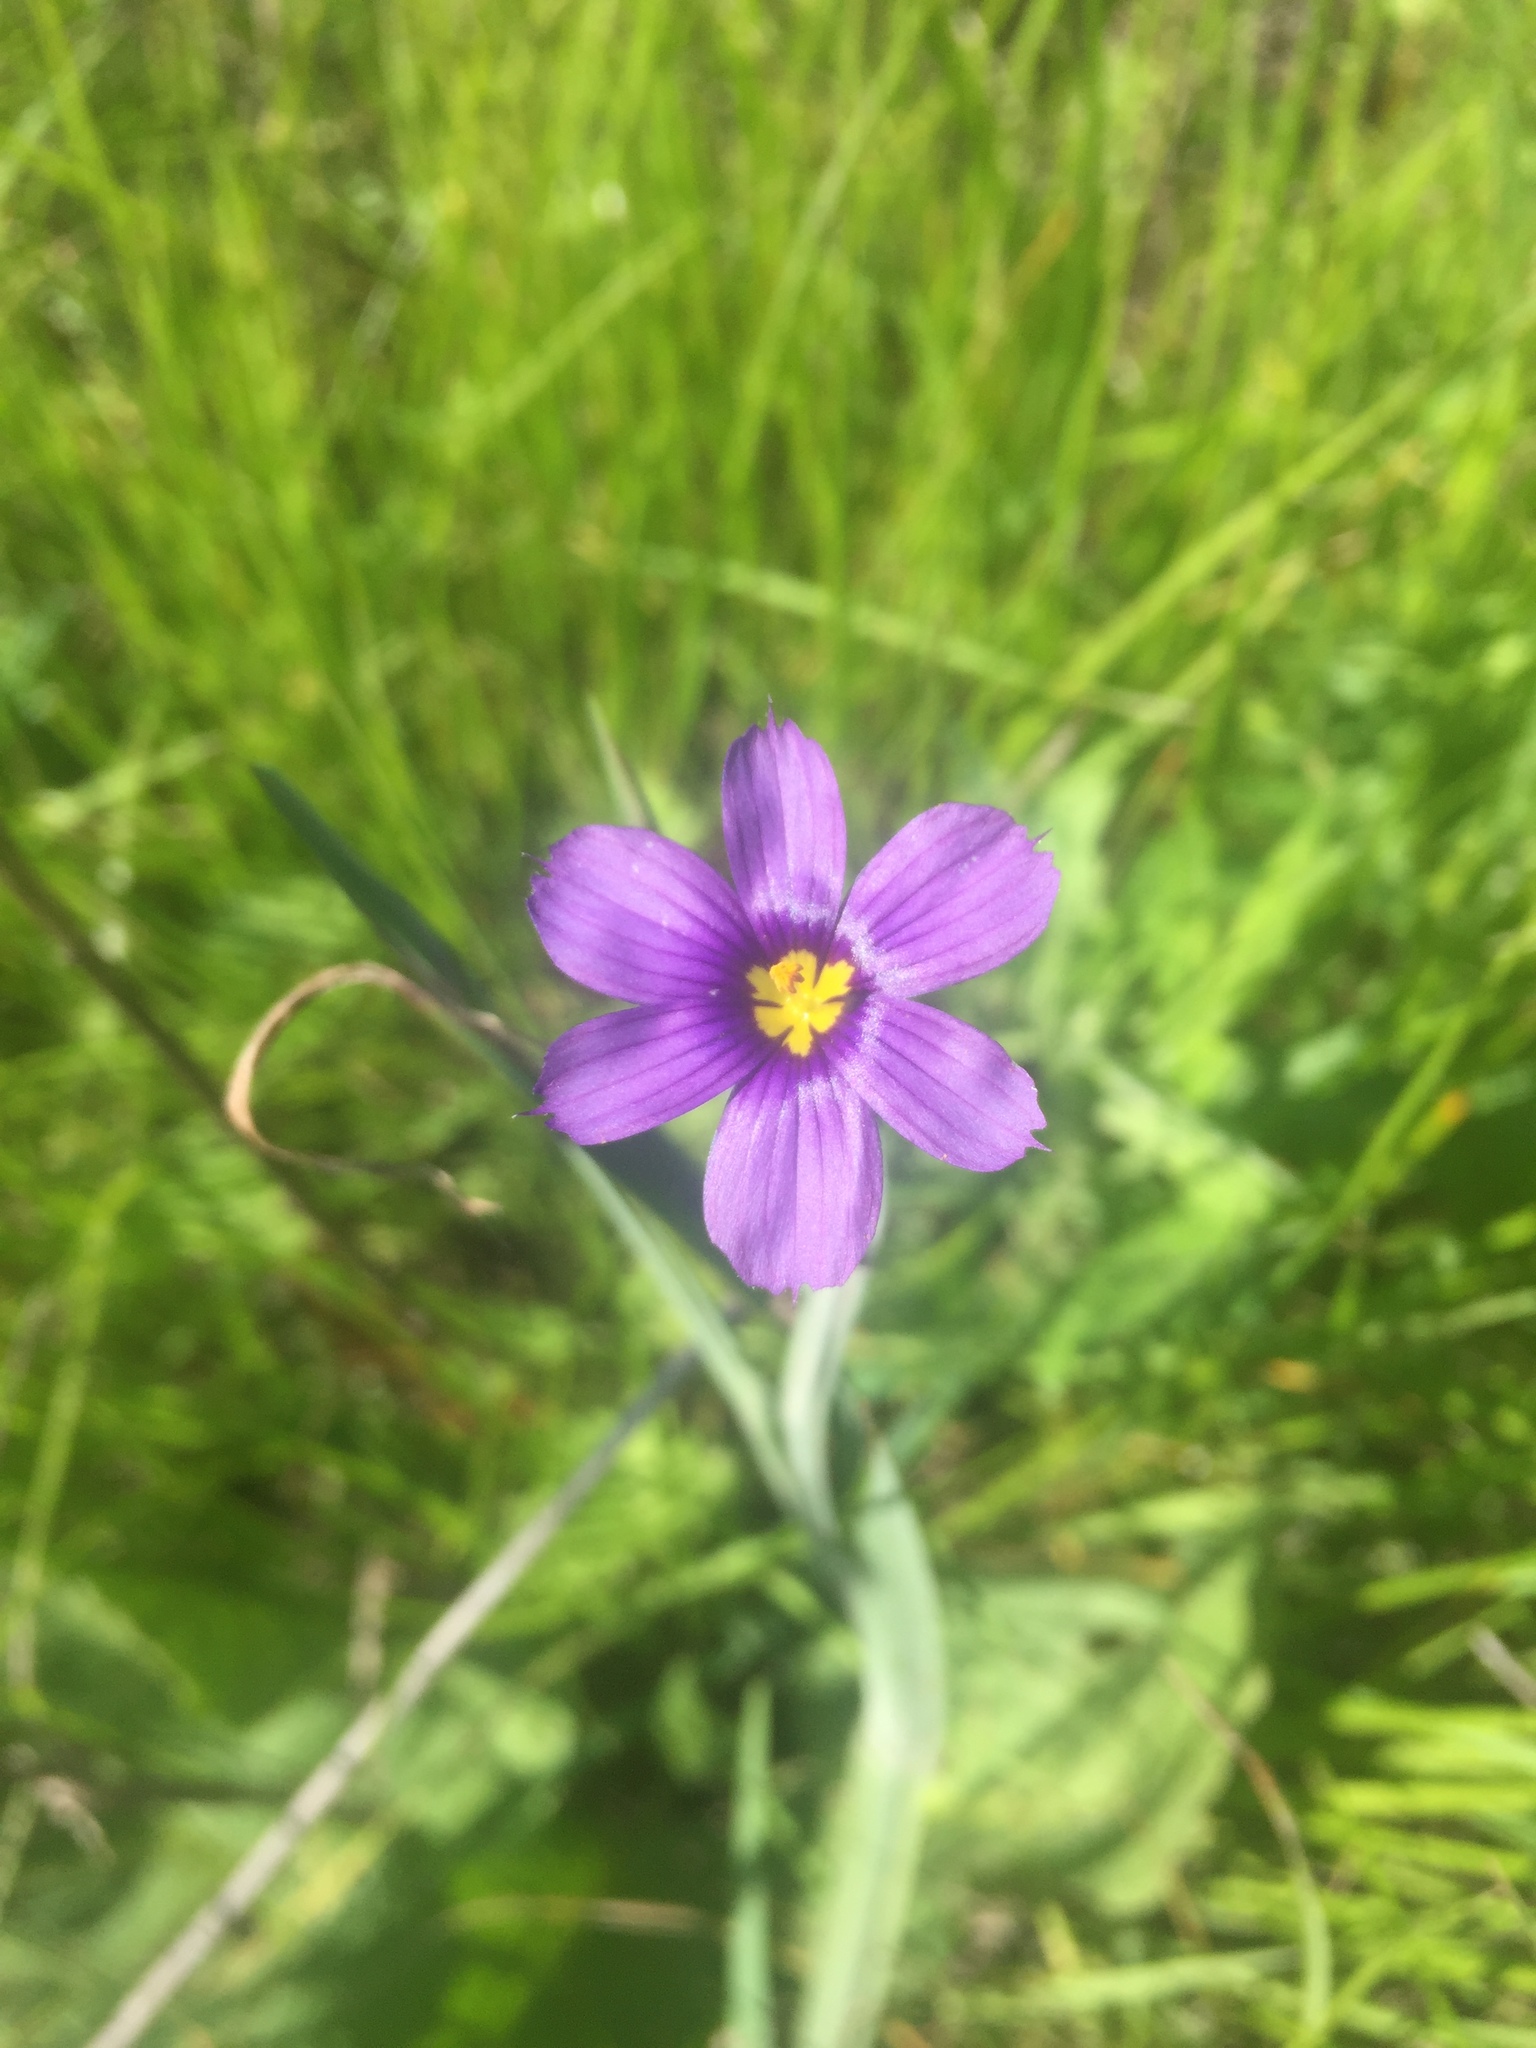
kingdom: Plantae
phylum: Tracheophyta
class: Liliopsida
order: Asparagales
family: Iridaceae
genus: Sisyrinchium
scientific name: Sisyrinchium bellum
